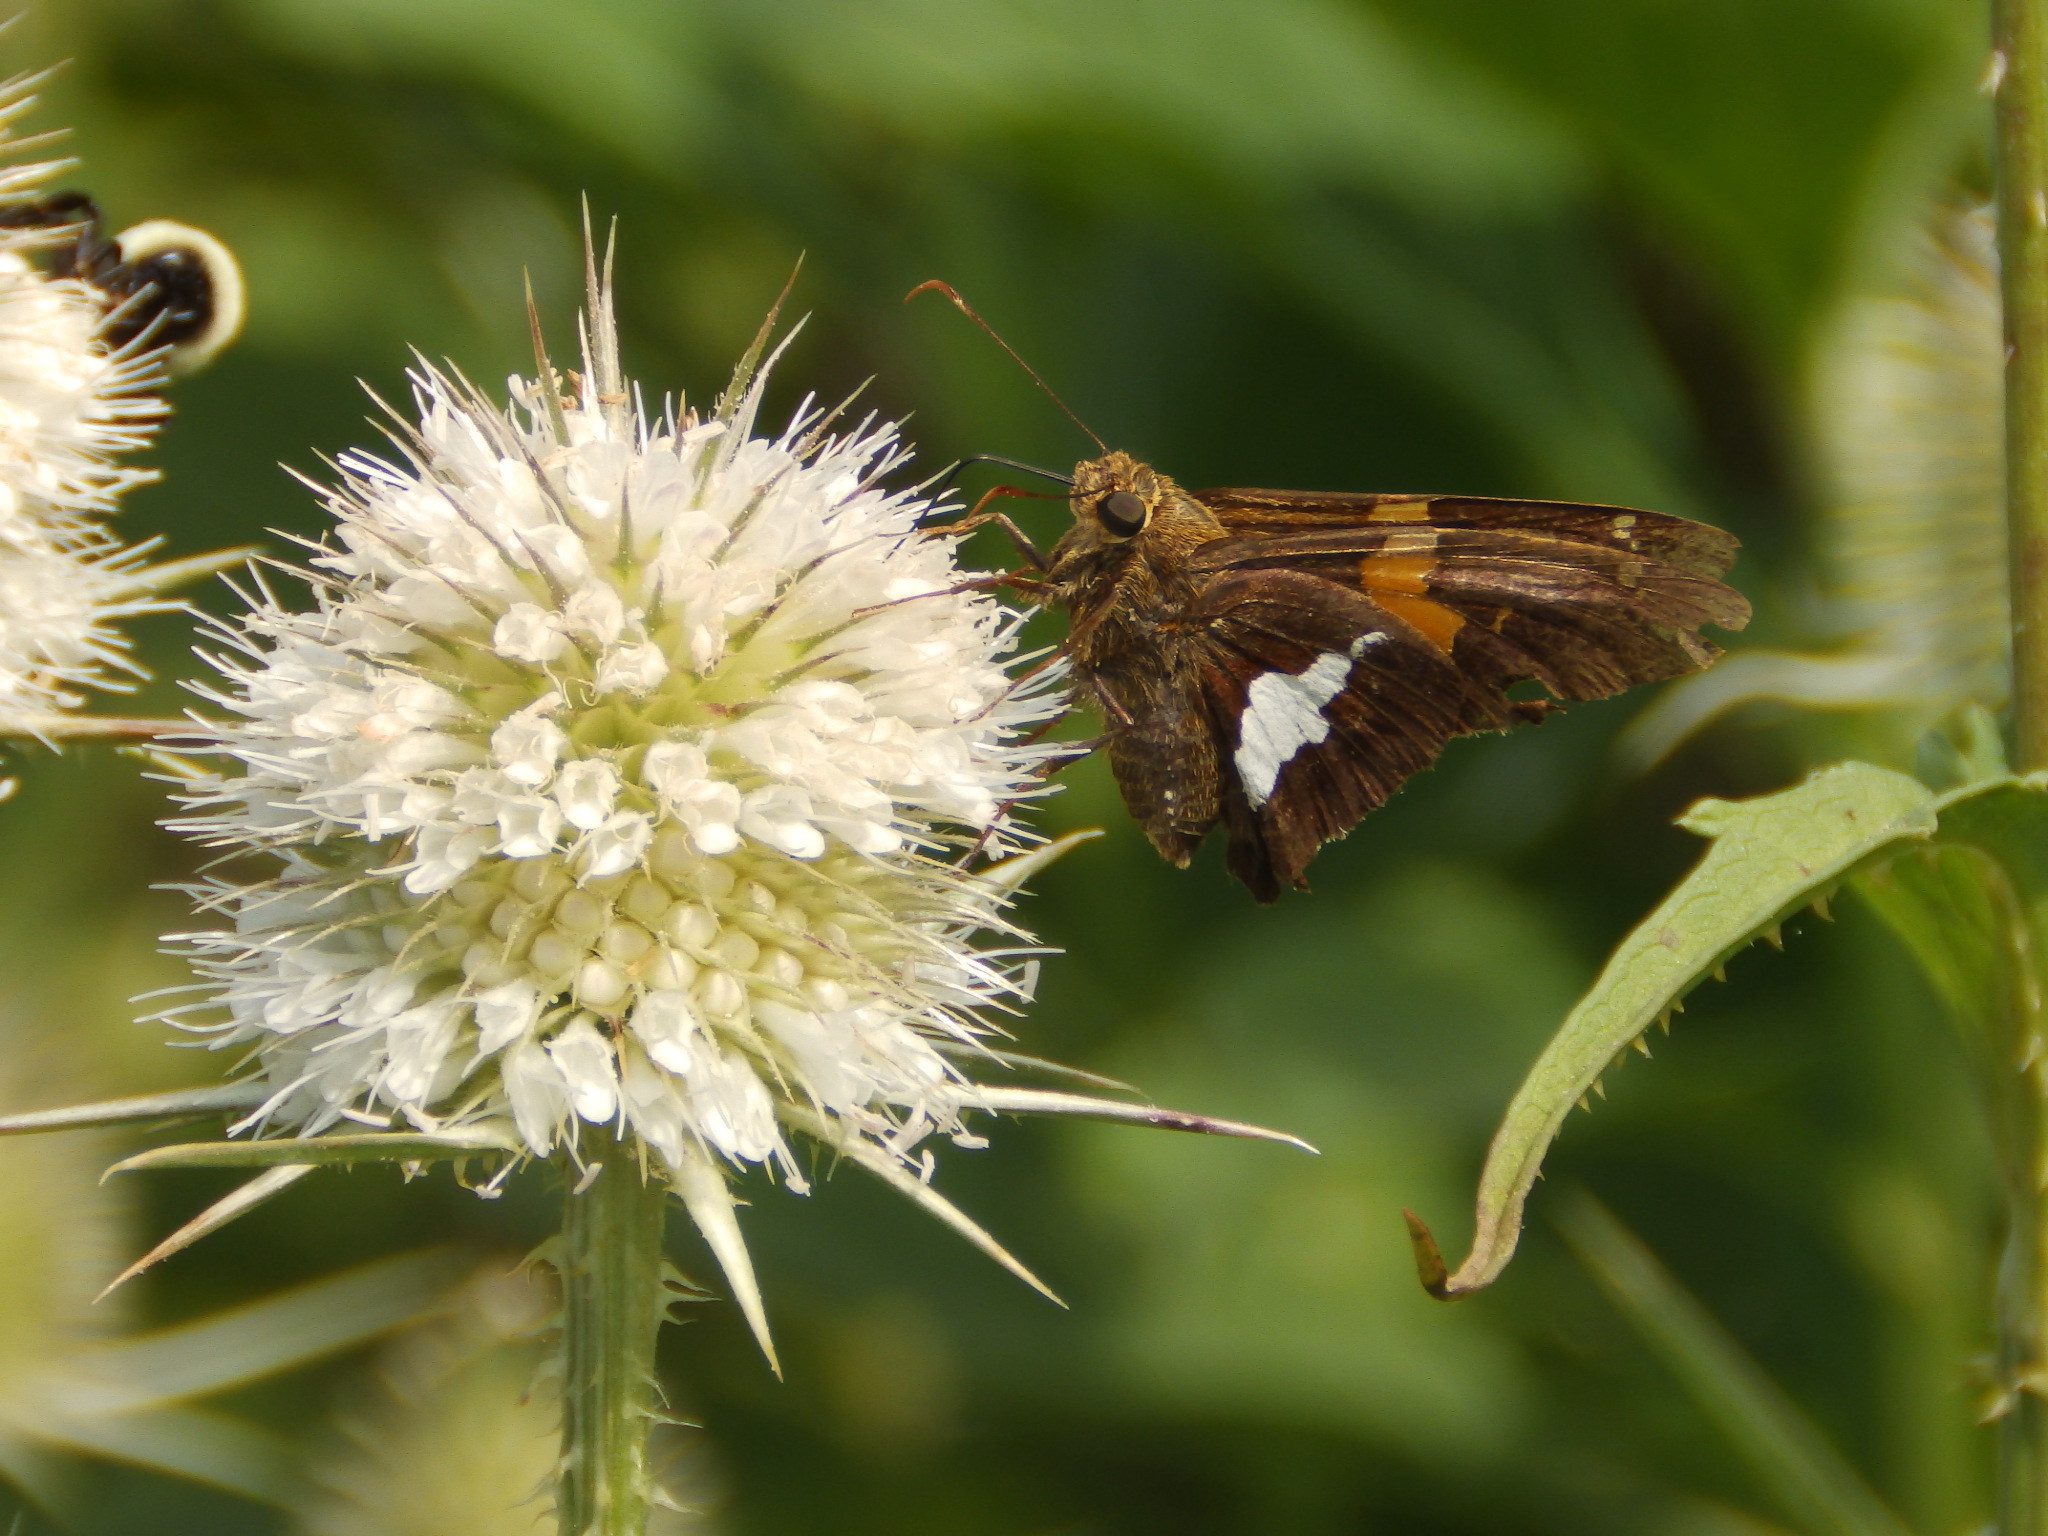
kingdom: Animalia
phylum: Arthropoda
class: Insecta
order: Lepidoptera
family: Hesperiidae
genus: Epargyreus
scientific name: Epargyreus clarus
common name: Silver-spotted skipper
